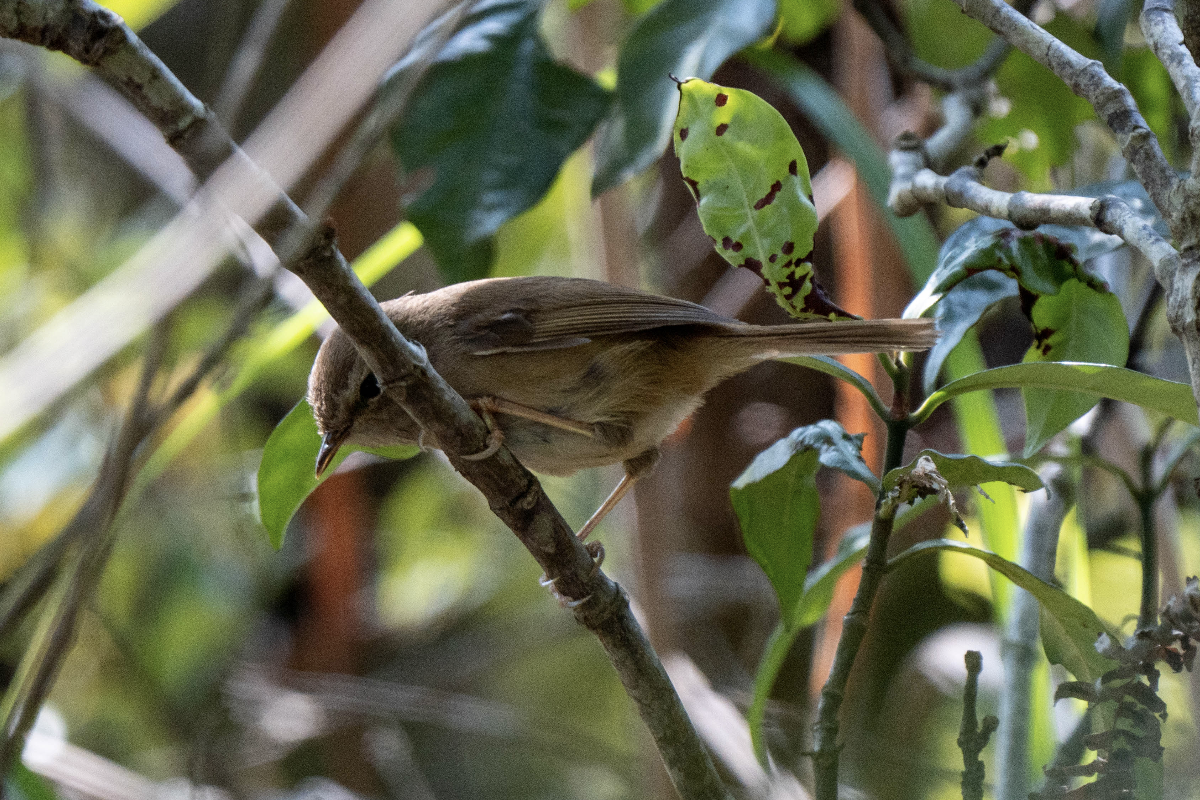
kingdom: Animalia
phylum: Chordata
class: Aves
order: Passeriformes
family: Cettiidae
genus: Horornis
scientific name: Horornis fortipes
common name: Brown-flanked bush warbler
